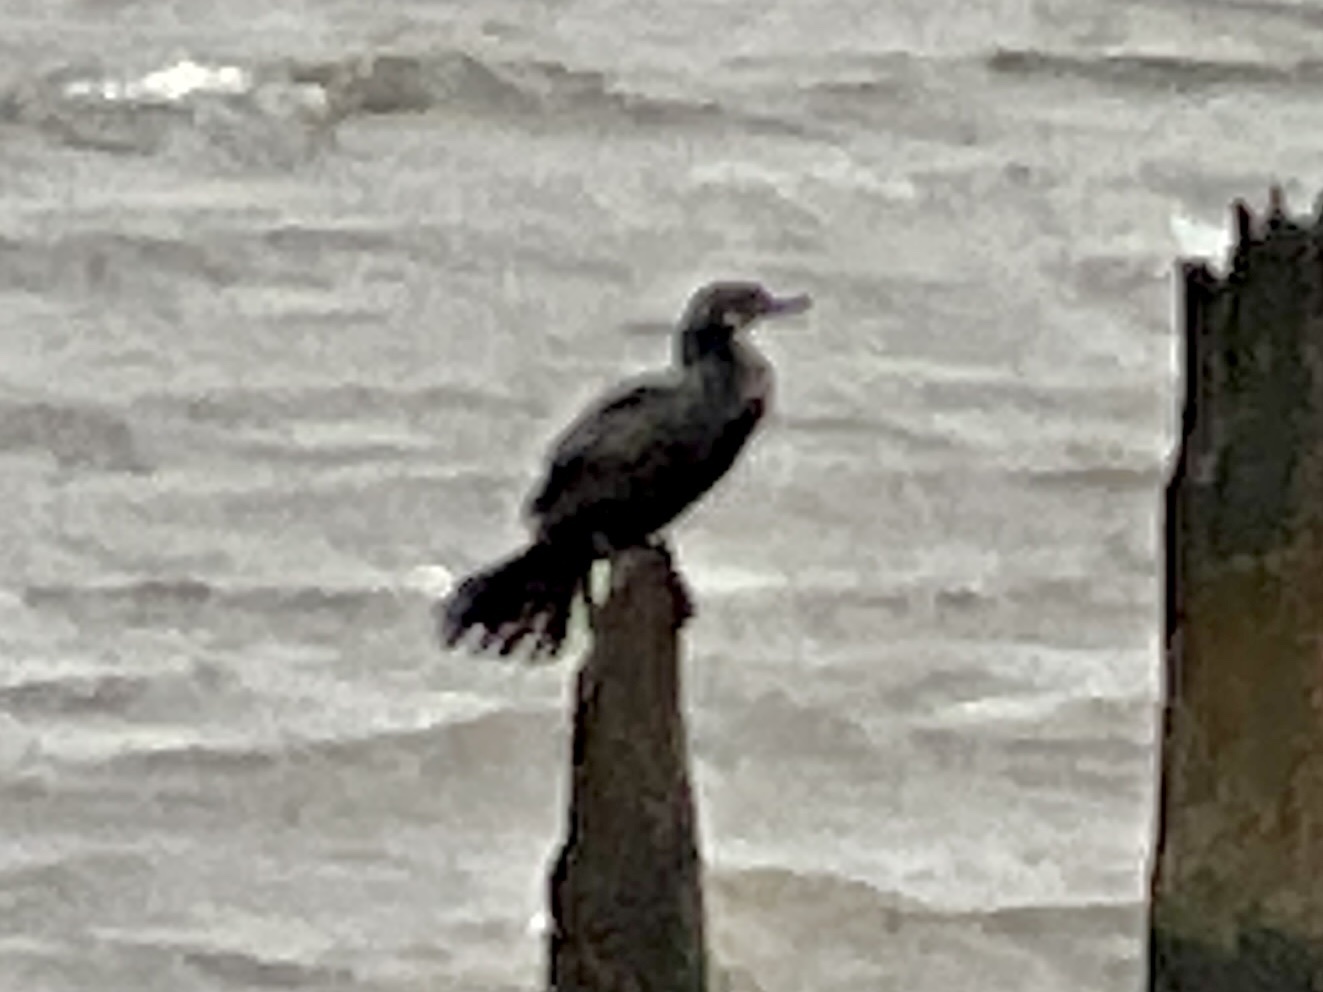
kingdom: Animalia
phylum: Chordata
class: Aves
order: Suliformes
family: Phalacrocoracidae
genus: Phalacrocorax
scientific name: Phalacrocorax brasilianus
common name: Neotropic cormorant
